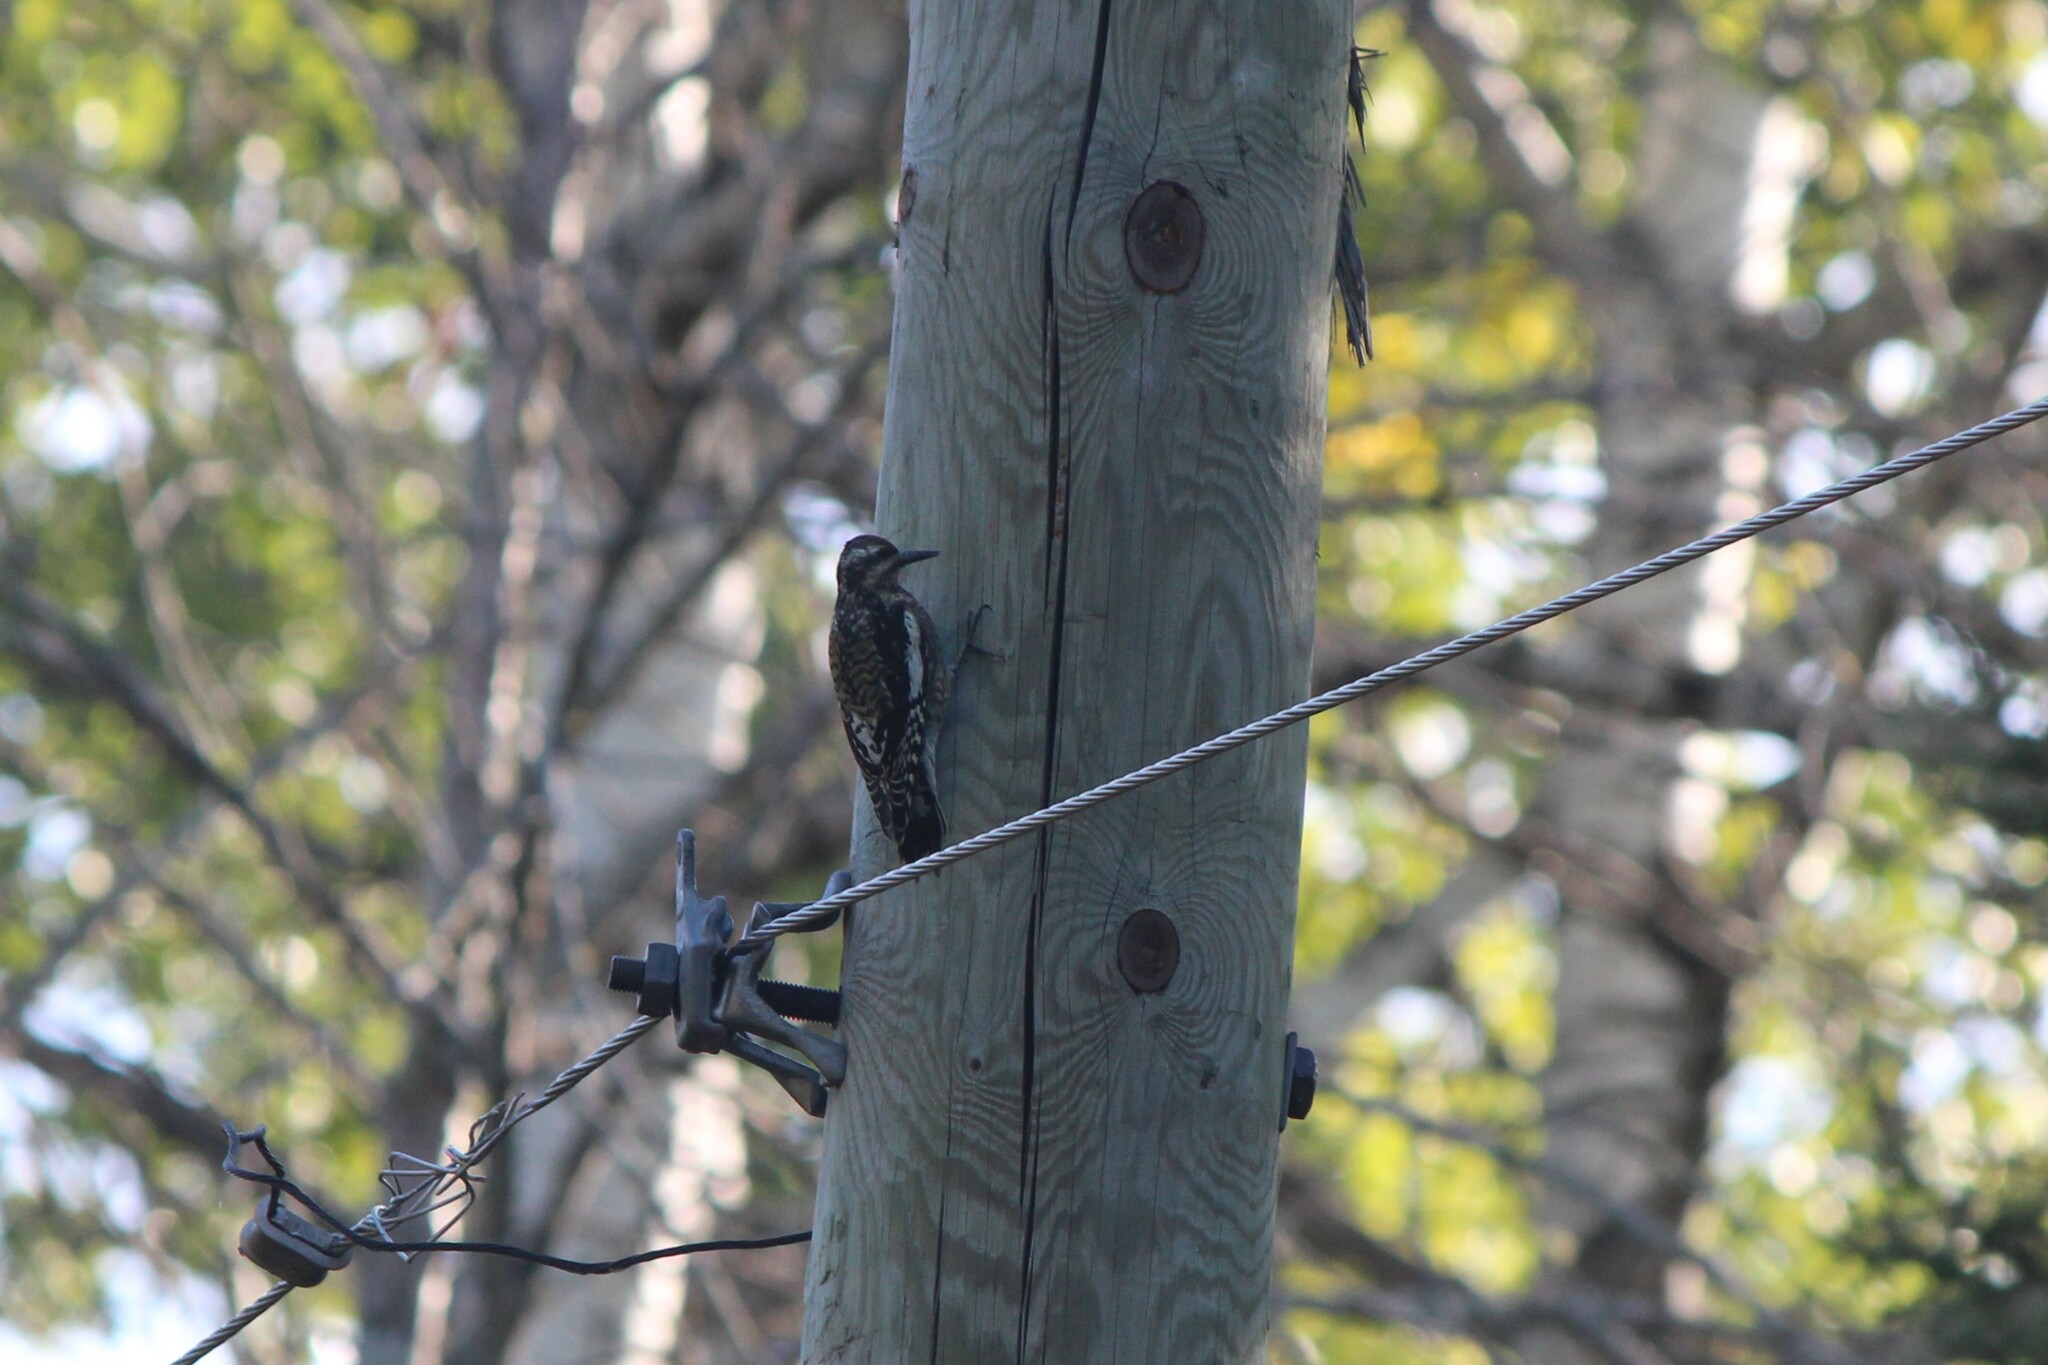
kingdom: Animalia
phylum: Chordata
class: Aves
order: Piciformes
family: Picidae
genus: Sphyrapicus
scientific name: Sphyrapicus varius
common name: Yellow-bellied sapsucker
